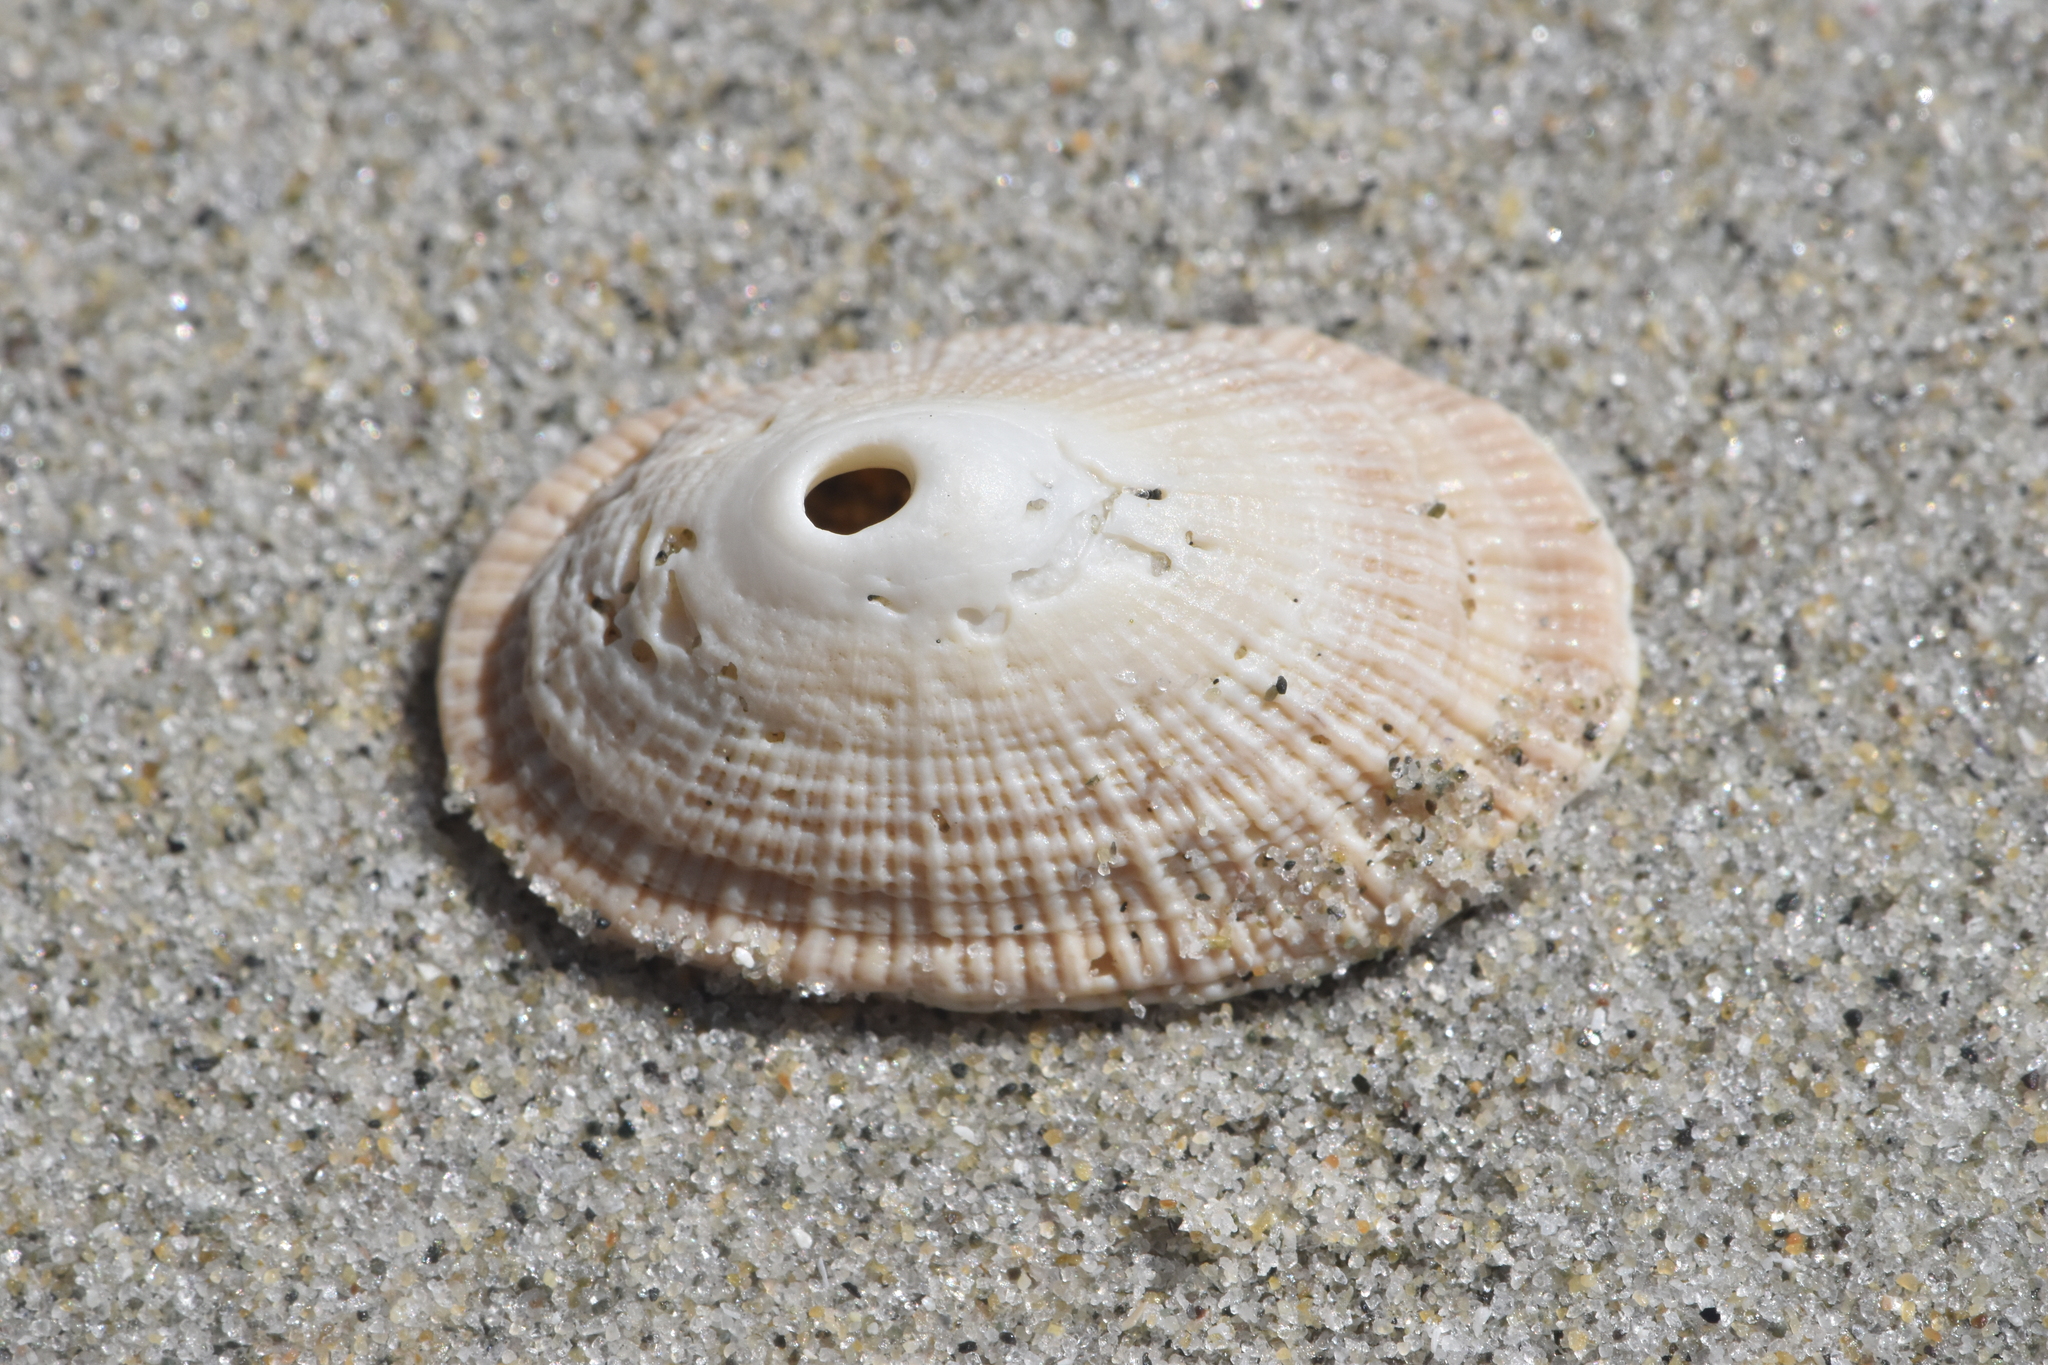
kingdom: Animalia
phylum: Mollusca
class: Gastropoda
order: Lepetellida
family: Fissurellidae
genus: Diodora
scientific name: Diodora aspera
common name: Rough keyhole limpet
